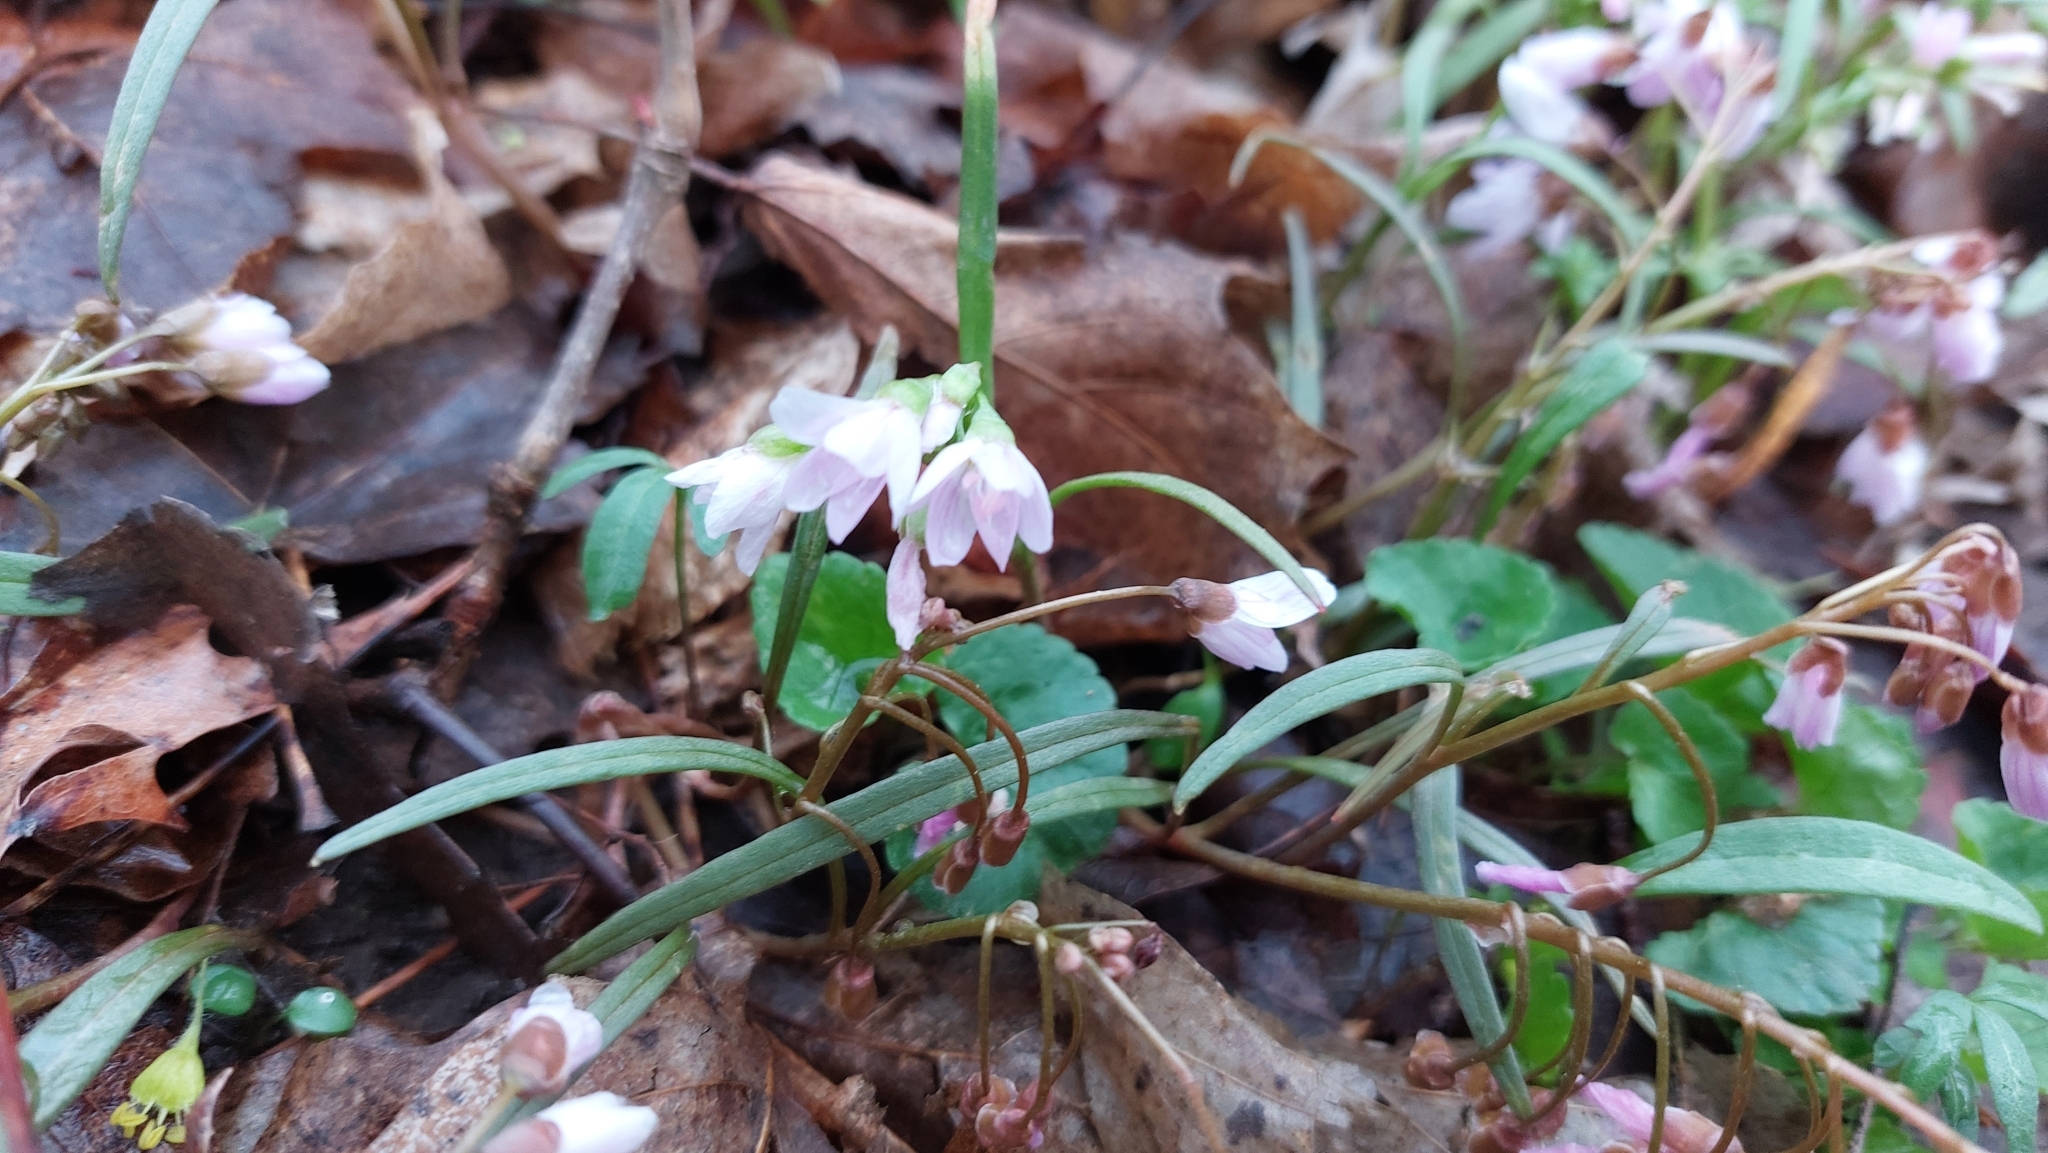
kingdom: Plantae
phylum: Tracheophyta
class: Magnoliopsida
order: Caryophyllales
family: Montiaceae
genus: Claytonia
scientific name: Claytonia virginica
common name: Virginia springbeauty
